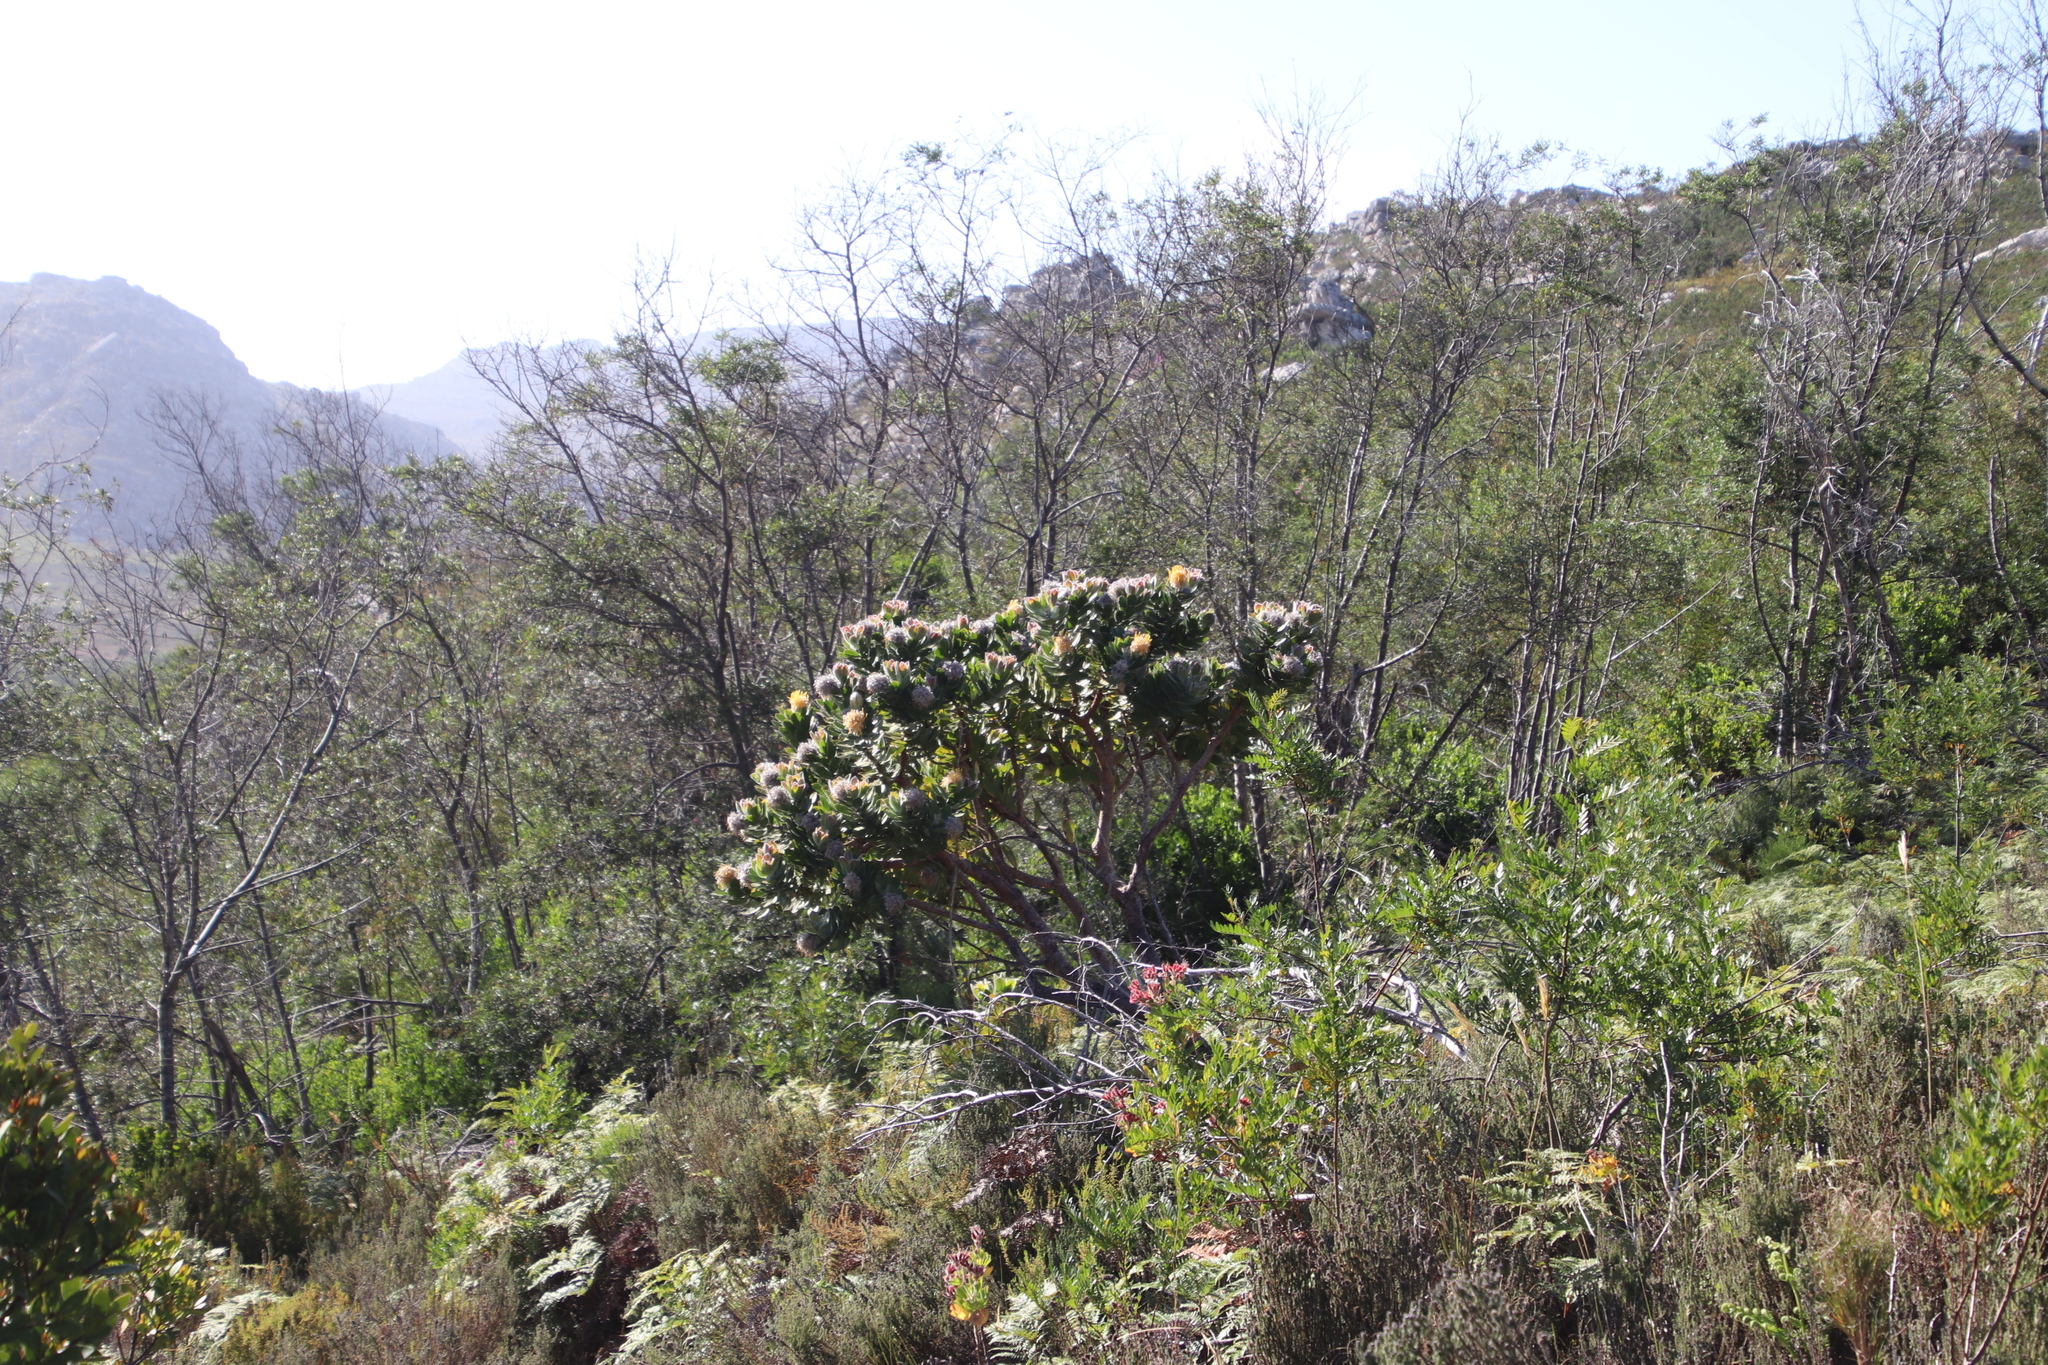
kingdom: Plantae
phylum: Tracheophyta
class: Magnoliopsida
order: Proteales
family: Proteaceae
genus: Leucospermum
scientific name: Leucospermum conocarpodendron
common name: Tree pincushion
